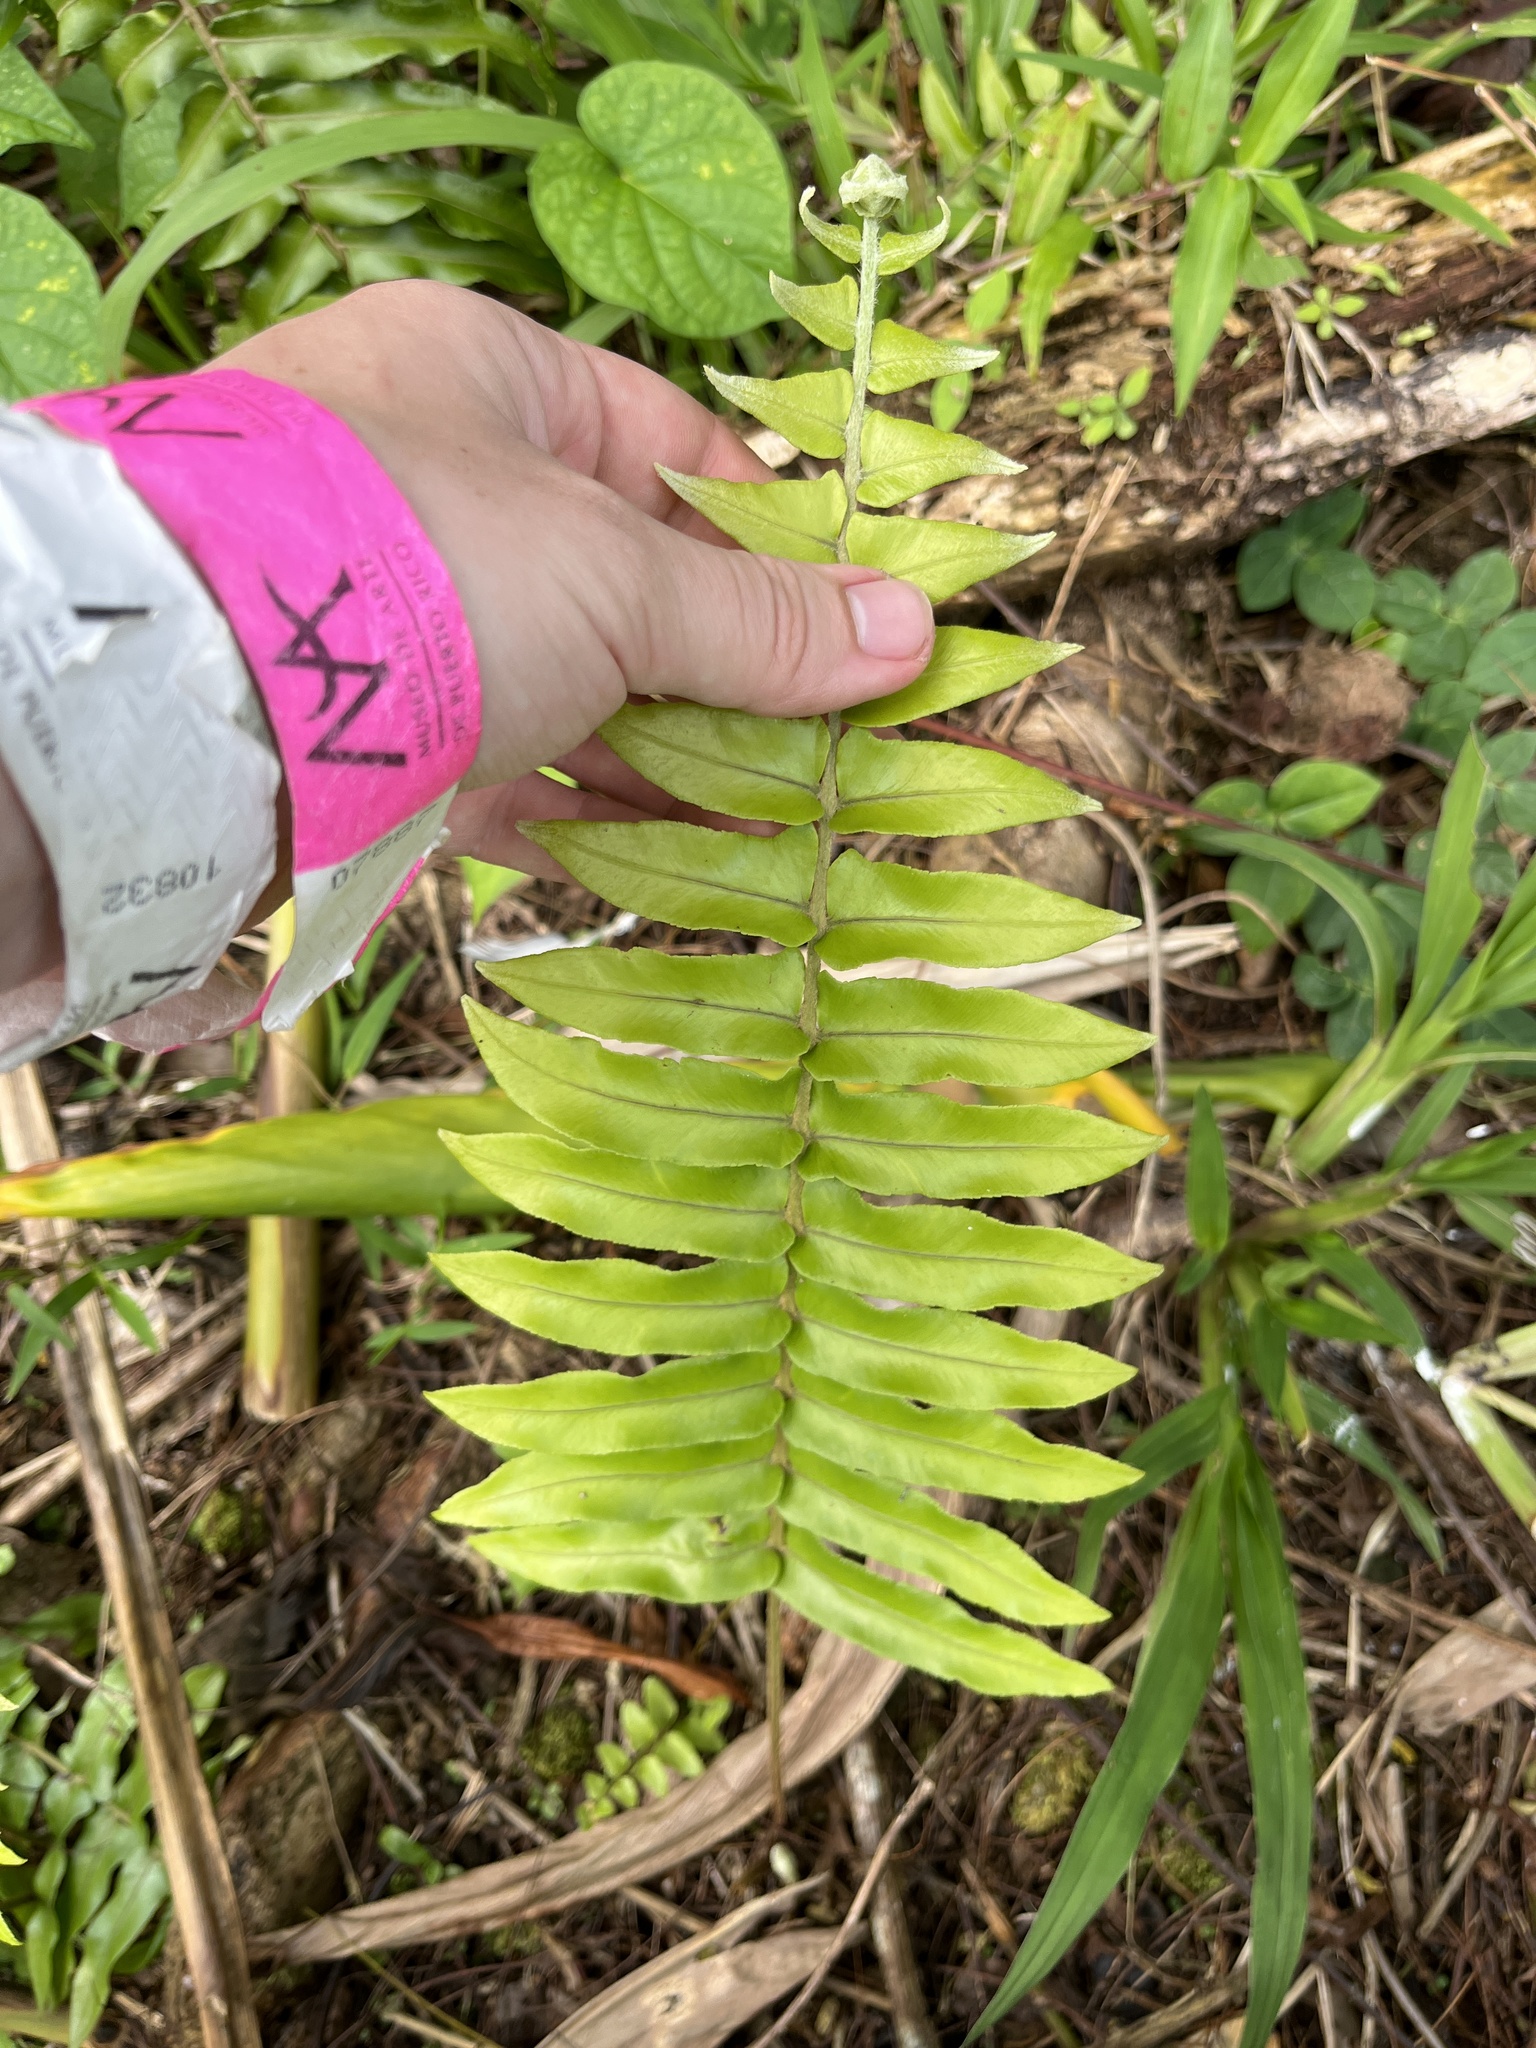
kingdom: Plantae
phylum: Tracheophyta
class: Polypodiopsida
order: Polypodiales
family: Nephrolepidaceae
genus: Nephrolepis
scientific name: Nephrolepis brownii
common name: Asian swordfern
